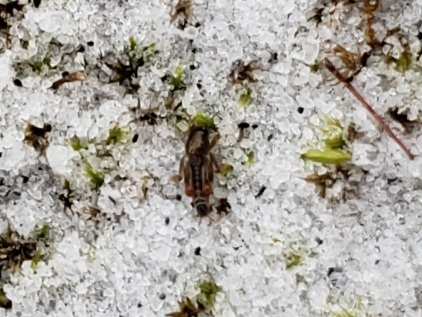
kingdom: Animalia
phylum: Arthropoda
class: Insecta
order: Orthoptera
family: Tridactylidae
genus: Neotridactylus
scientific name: Neotridactylus archboldi
